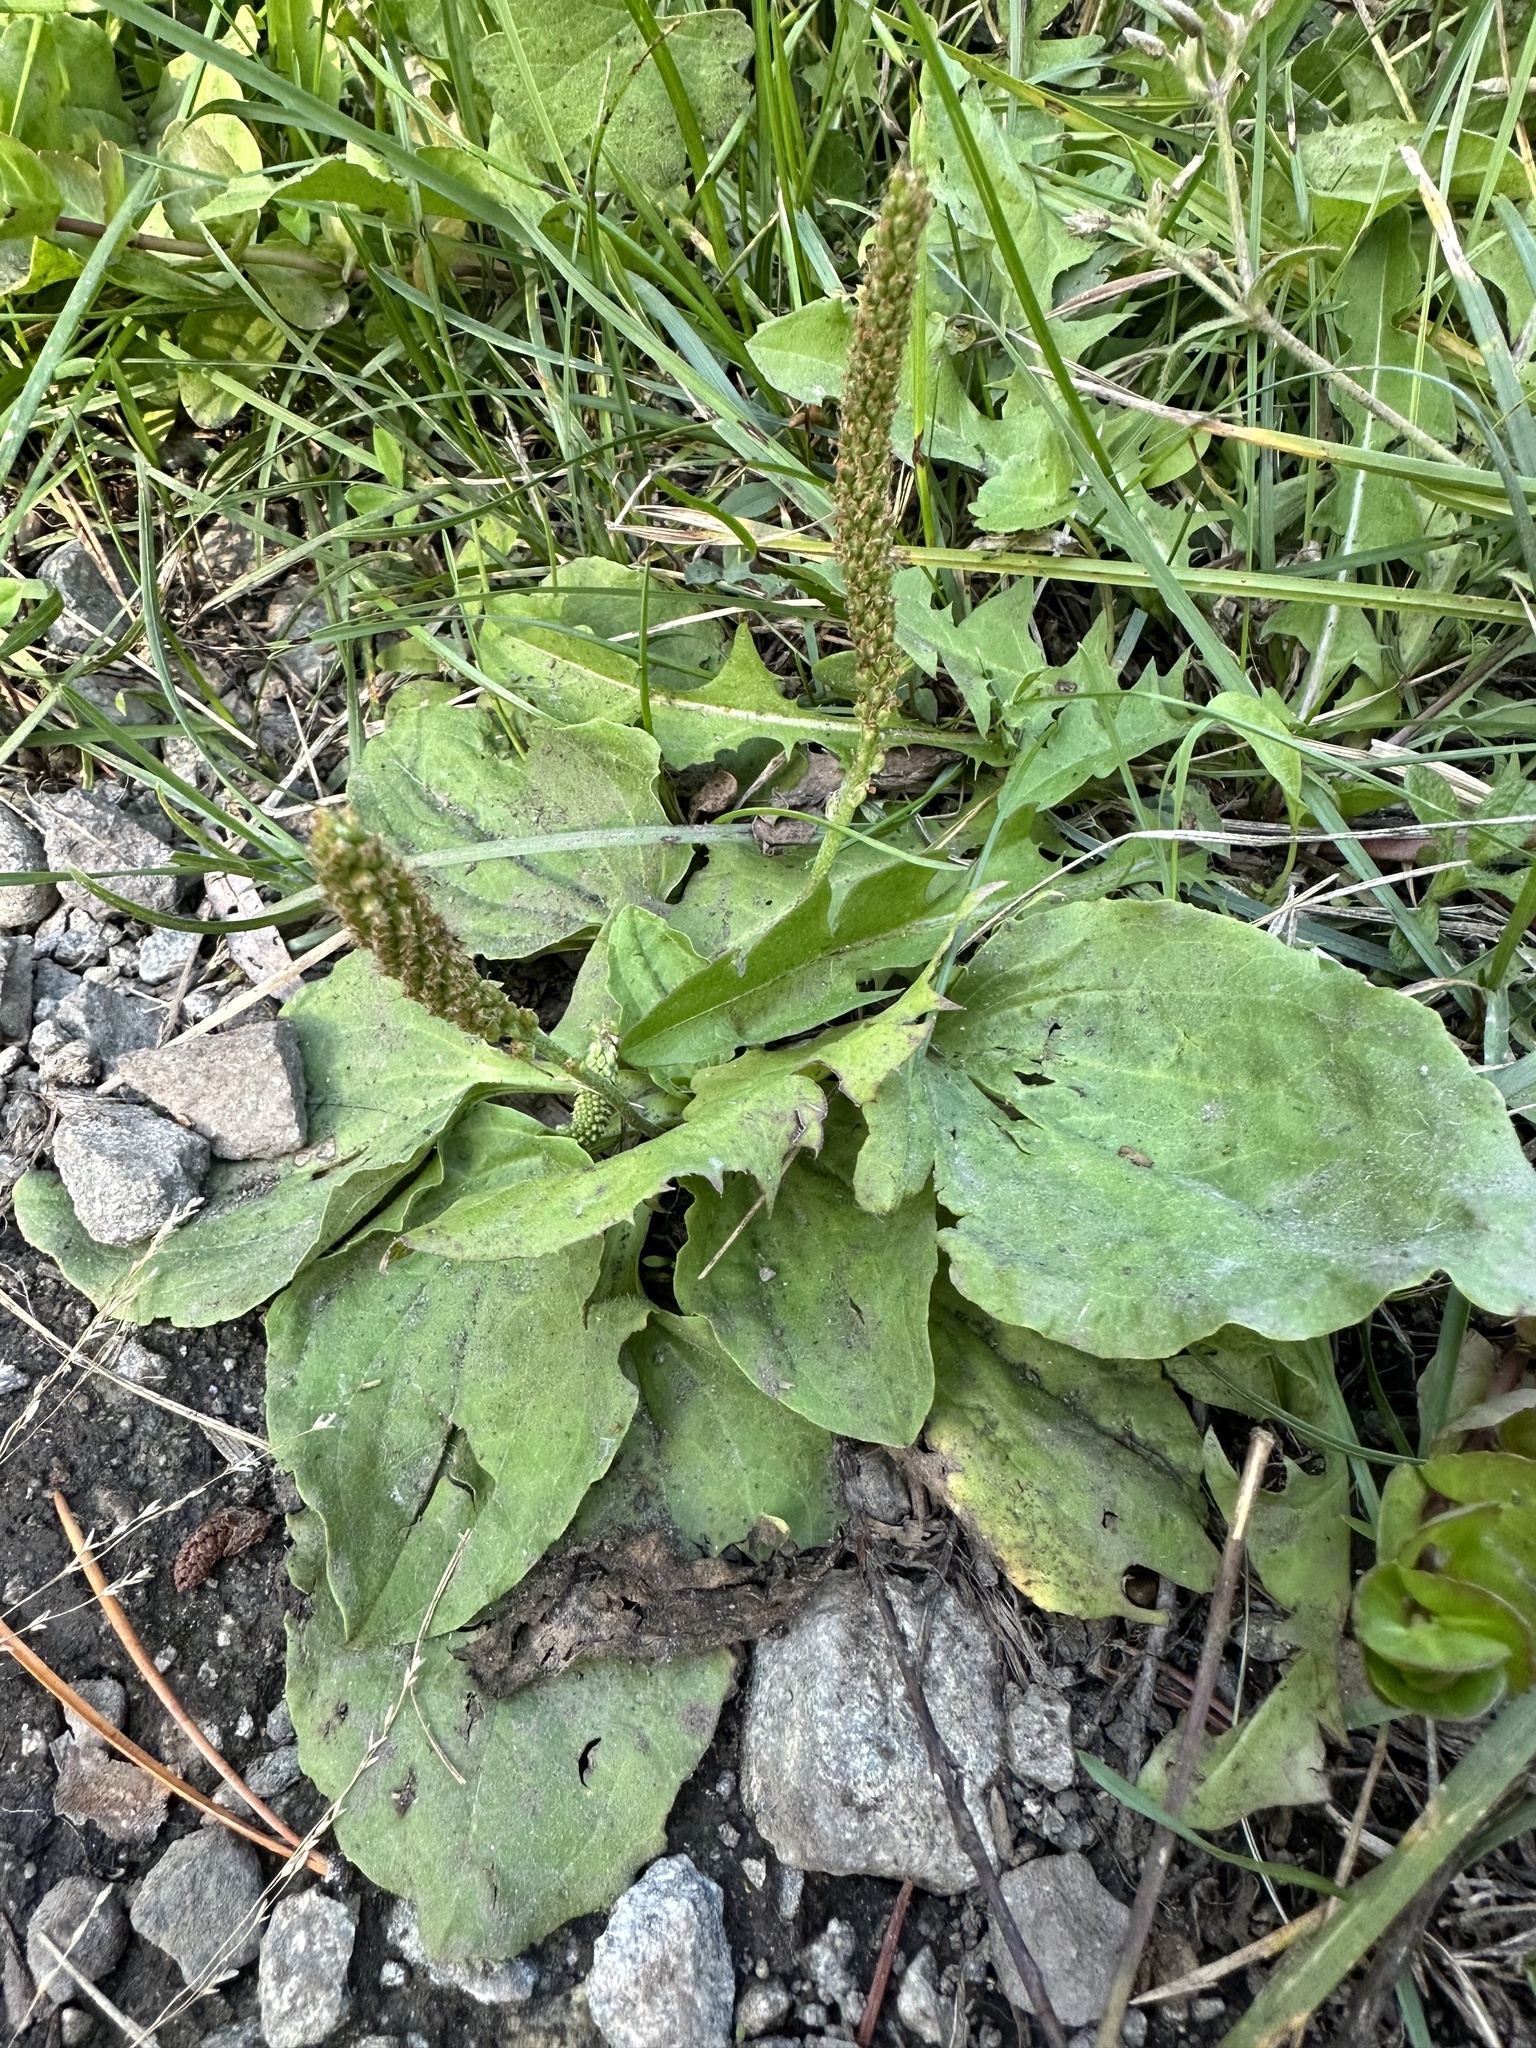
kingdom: Plantae
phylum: Tracheophyta
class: Magnoliopsida
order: Lamiales
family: Plantaginaceae
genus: Plantago
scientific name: Plantago major
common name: Common plantain
